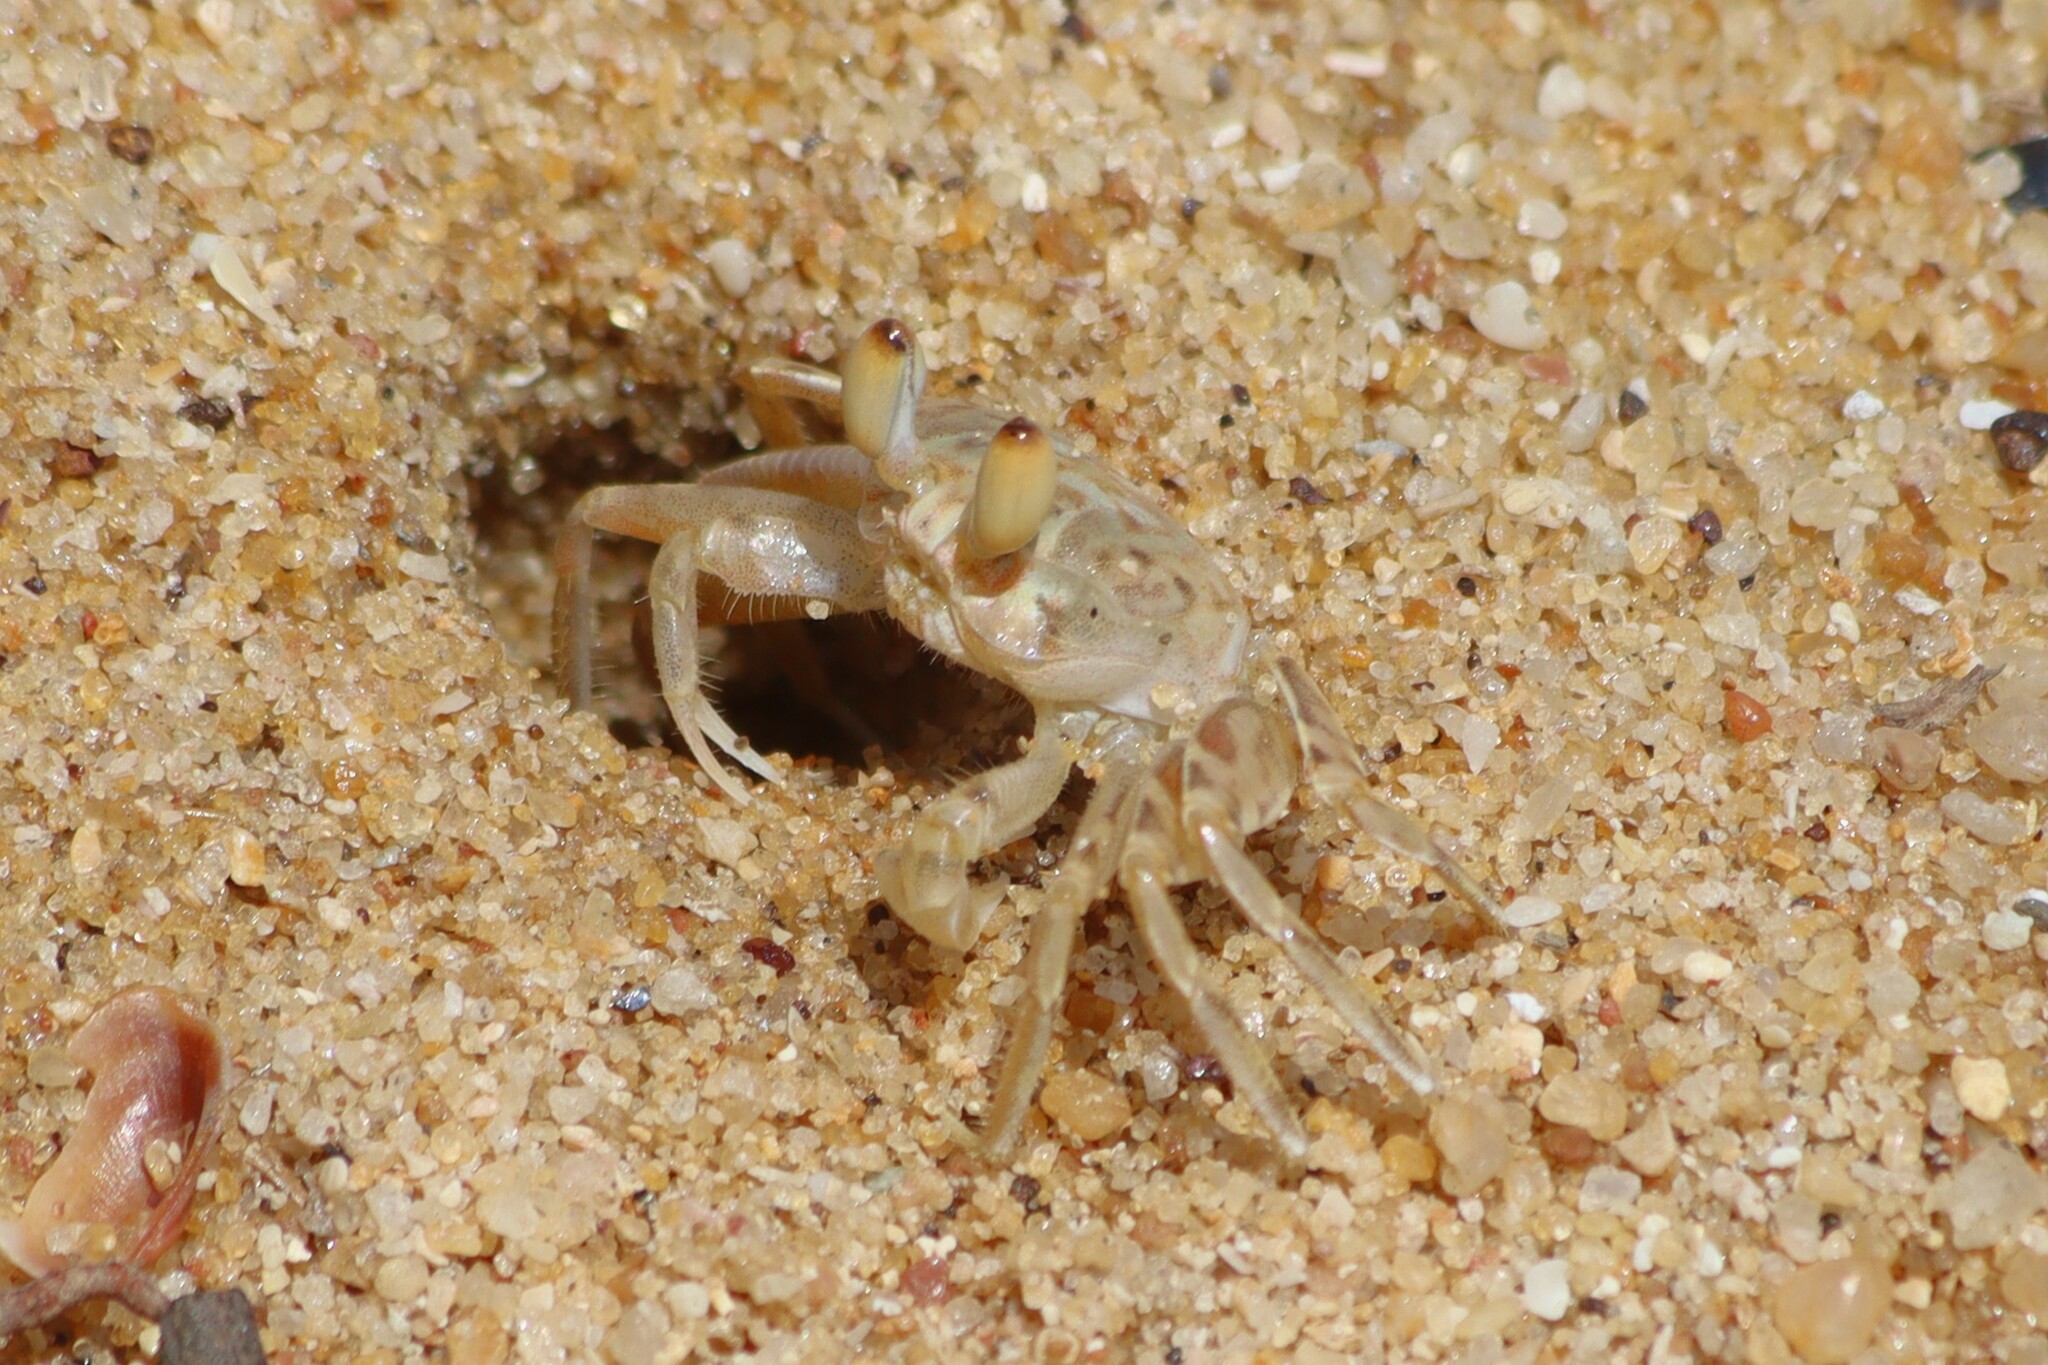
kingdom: Animalia
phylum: Arthropoda
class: Malacostraca
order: Decapoda
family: Ocypodidae
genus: Ocypode
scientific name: Ocypode brevicornis
